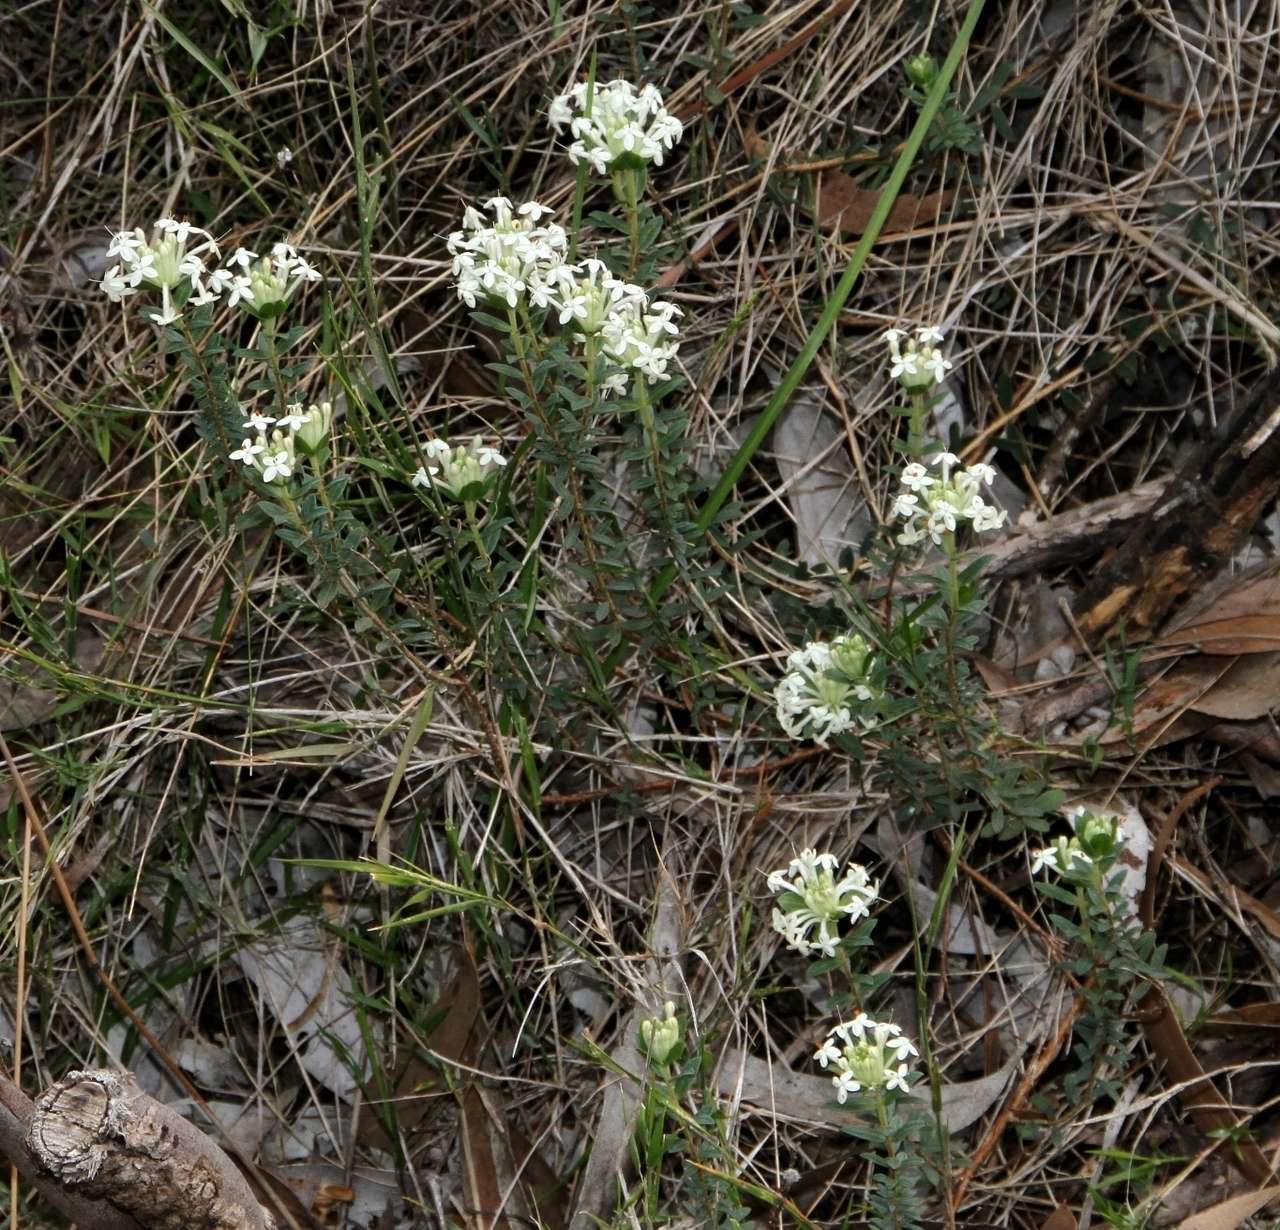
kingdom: Plantae
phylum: Tracheophyta
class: Magnoliopsida
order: Malvales
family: Thymelaeaceae
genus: Pimelea
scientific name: Pimelea humilis
